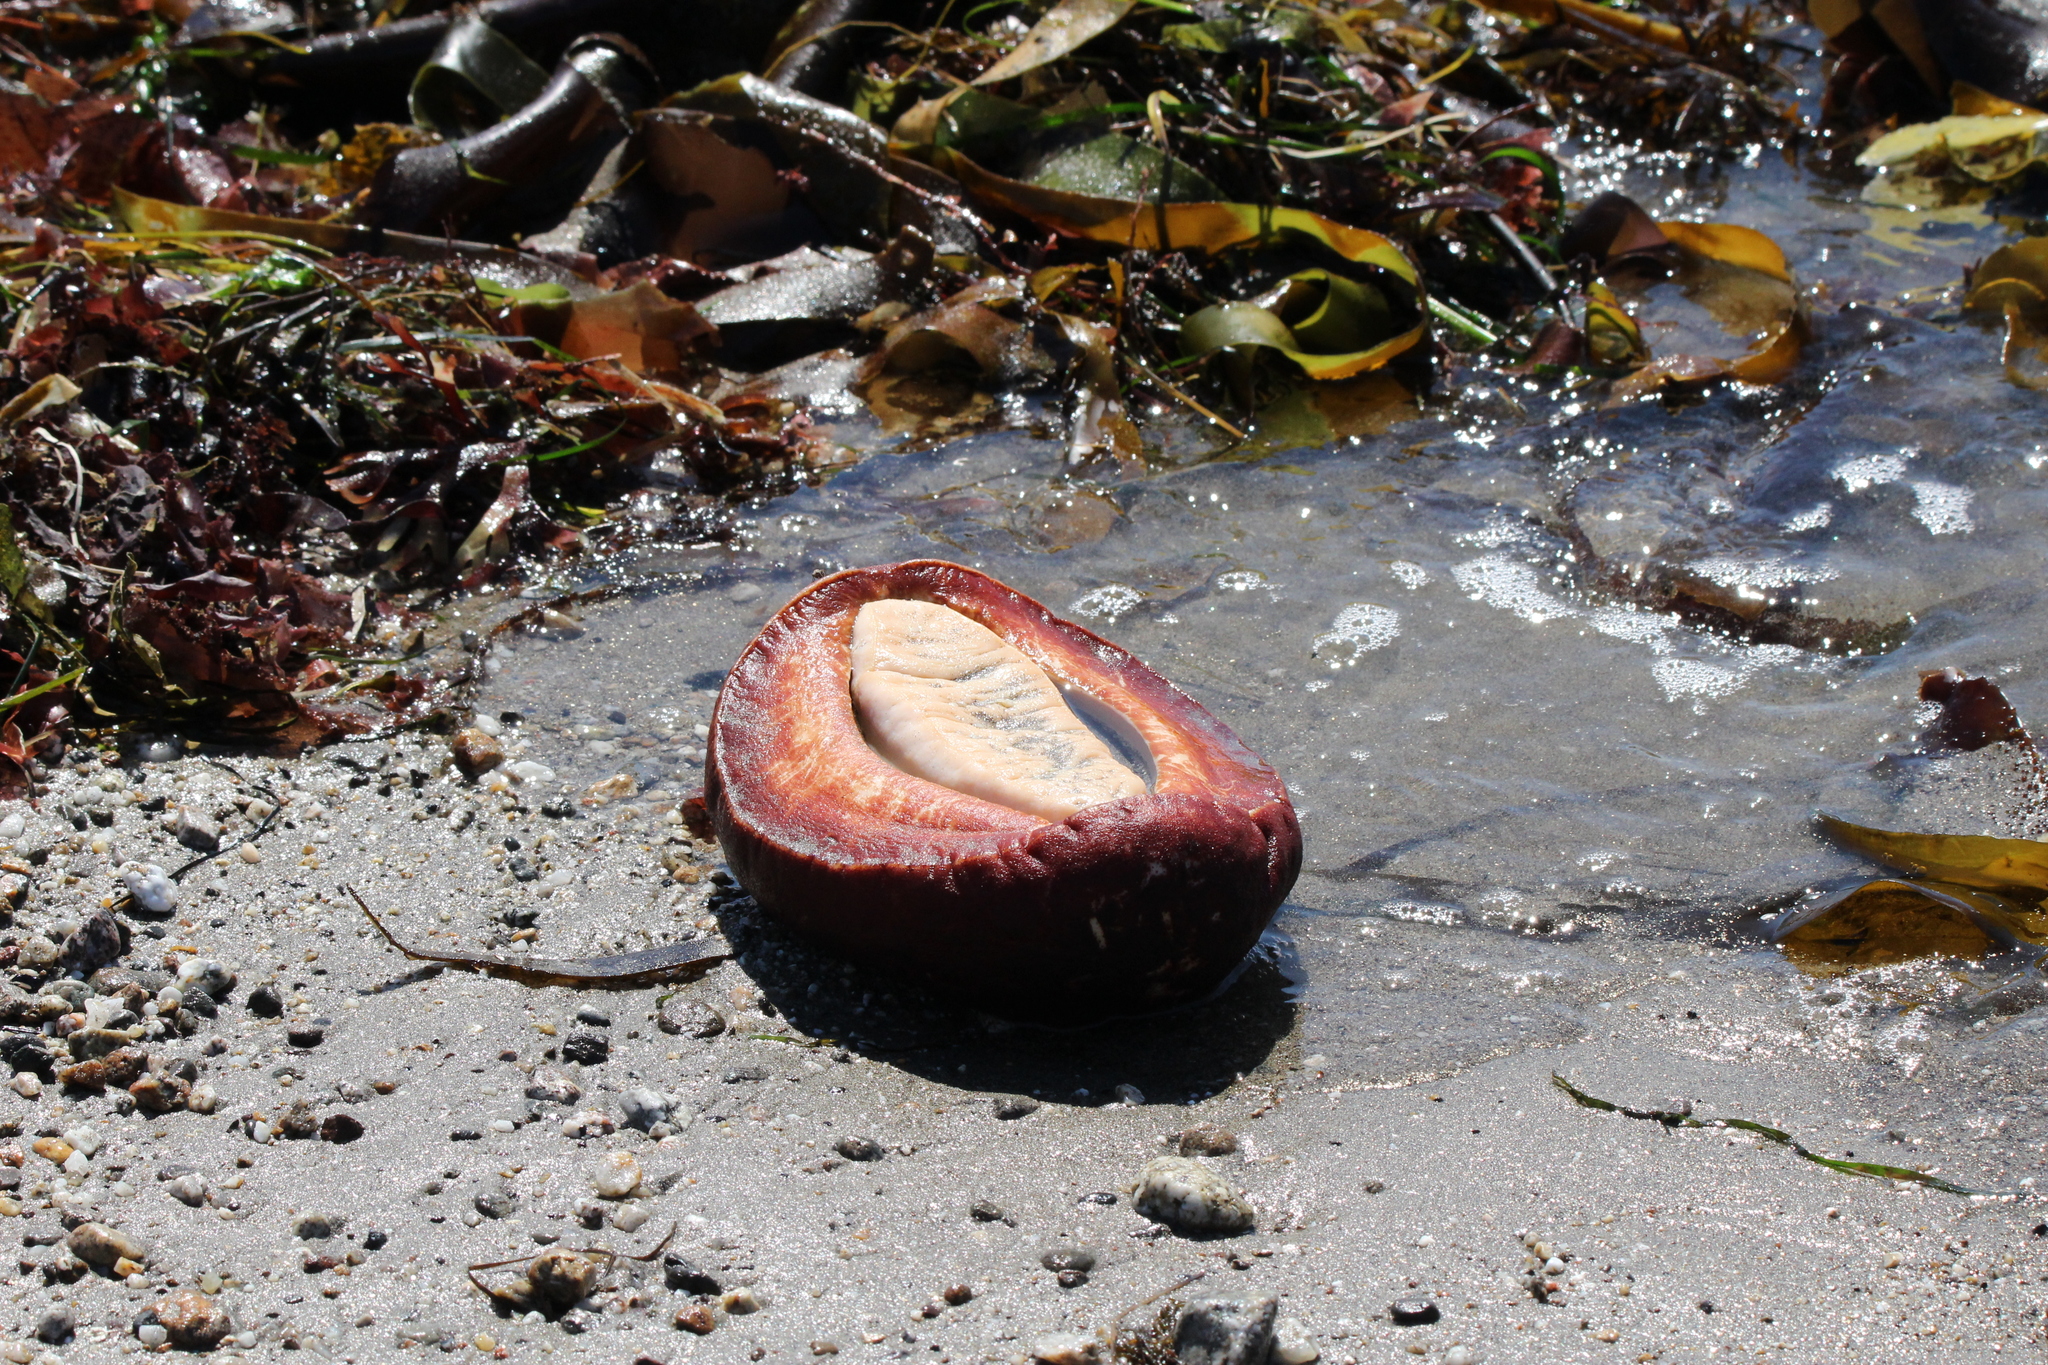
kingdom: Animalia
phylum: Mollusca
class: Polyplacophora
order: Chitonida
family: Acanthochitonidae
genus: Cryptochiton
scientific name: Cryptochiton stelleri
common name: Giant pacific chiton
